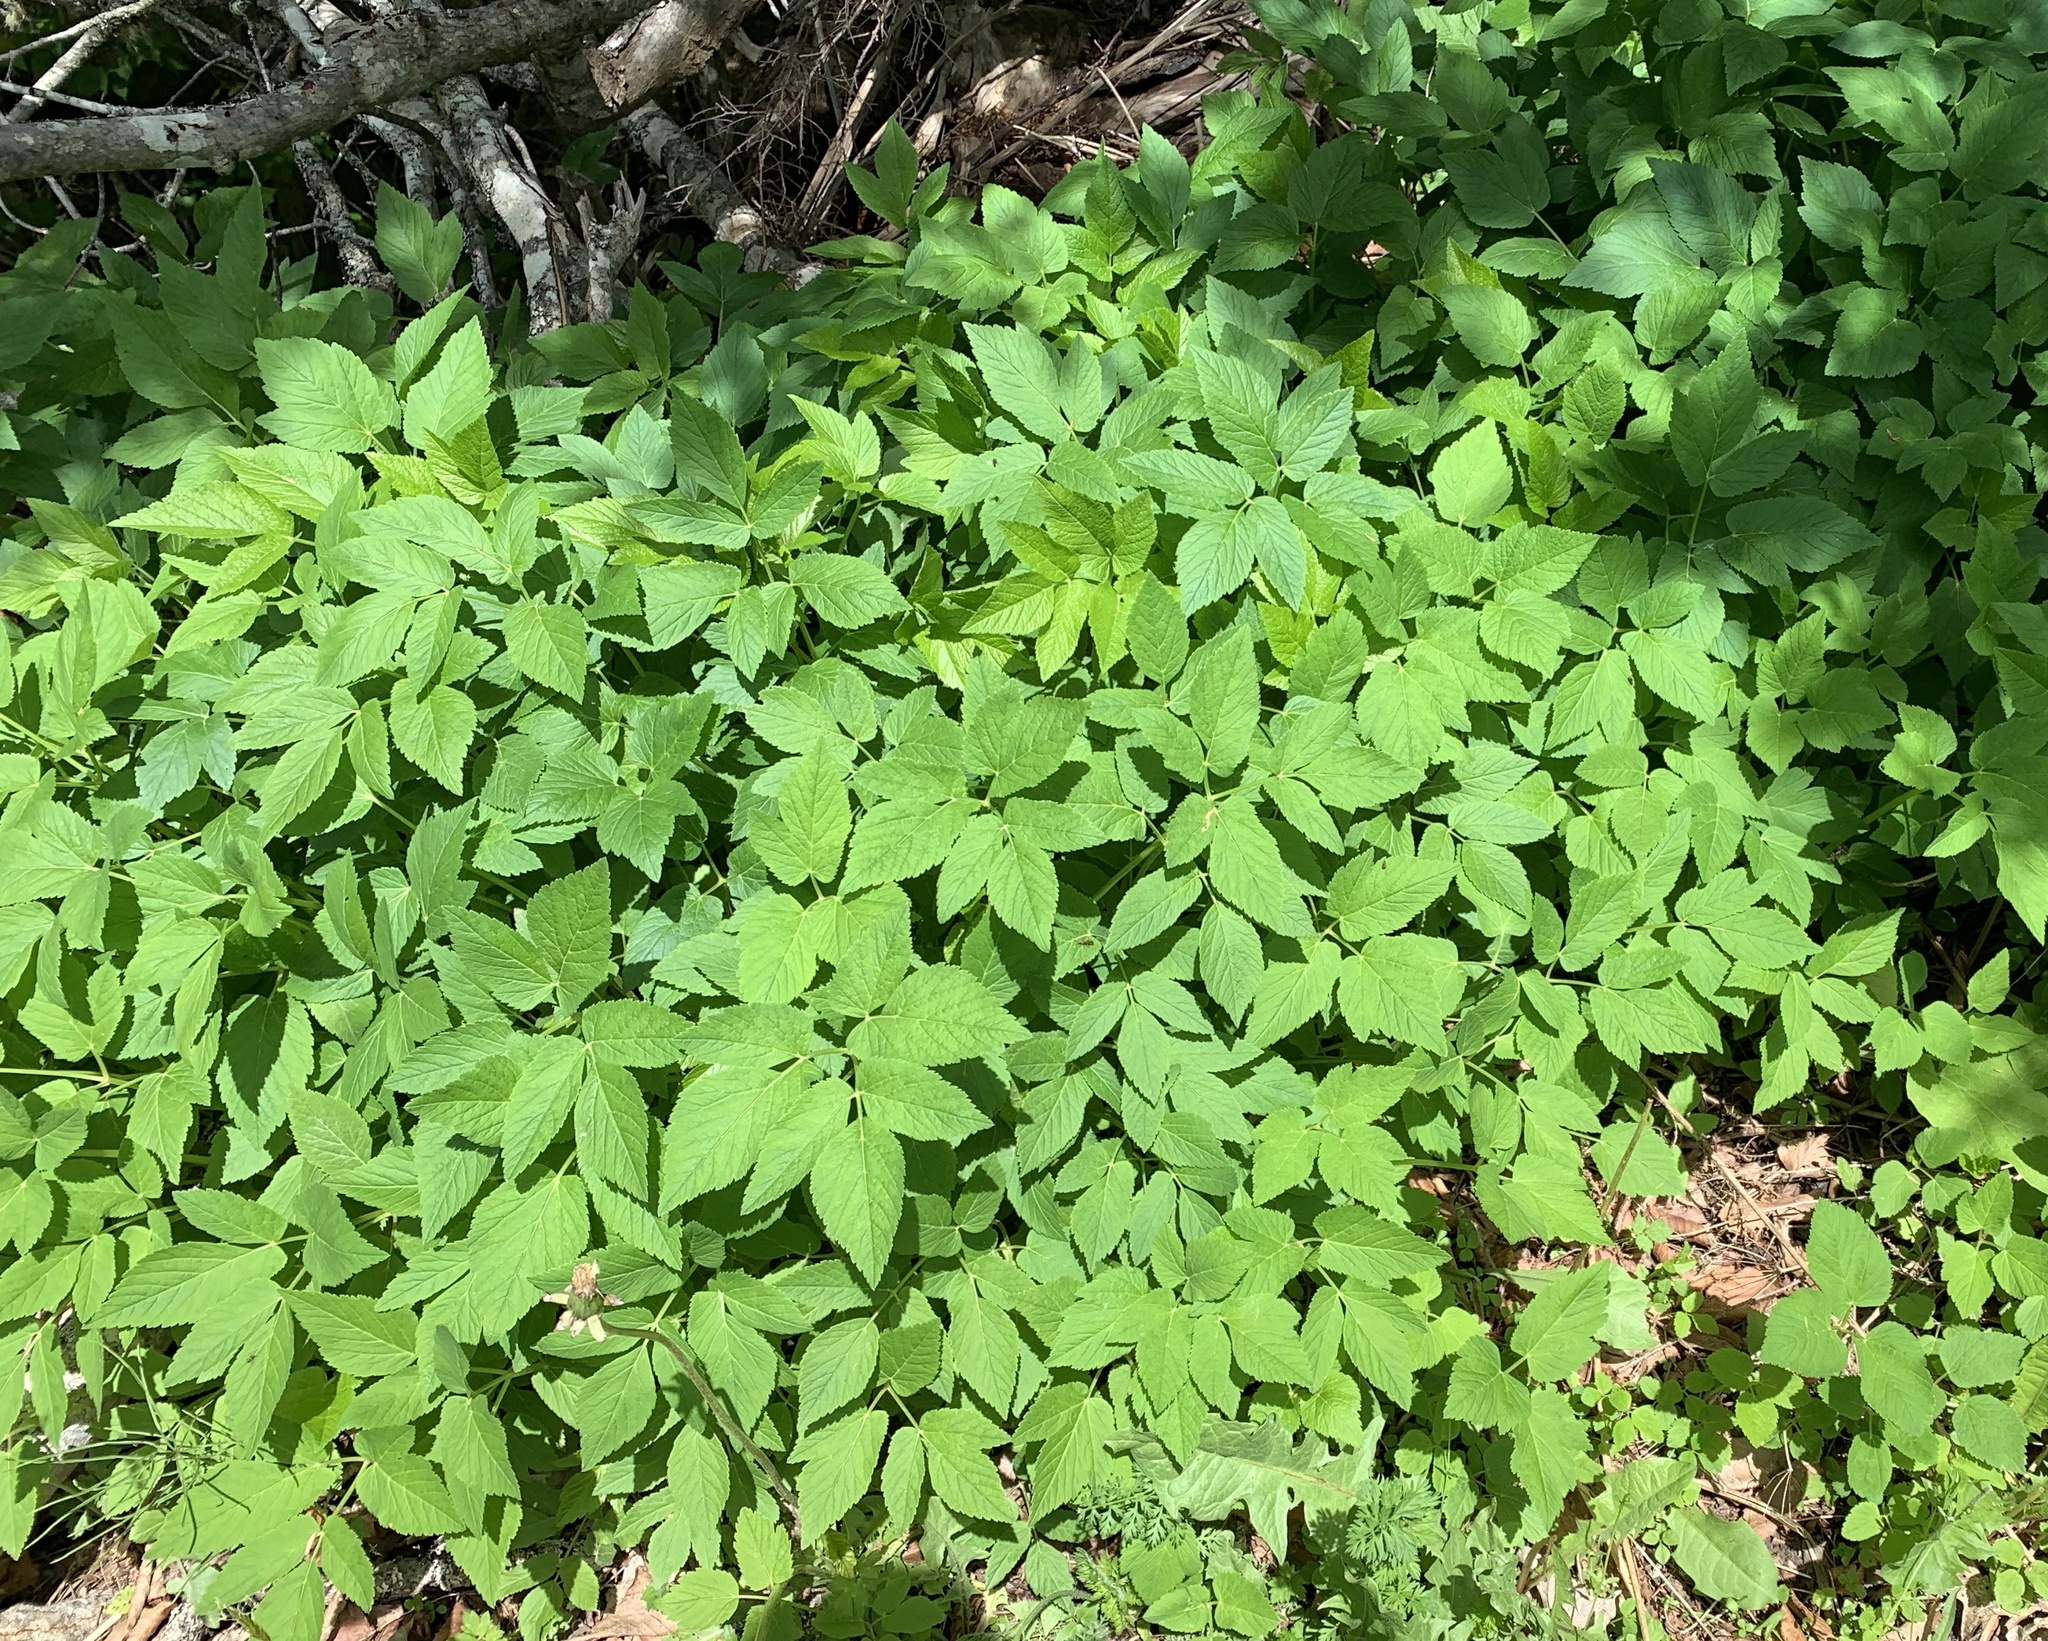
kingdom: Plantae
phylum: Tracheophyta
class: Magnoliopsida
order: Apiales
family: Apiaceae
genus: Aegopodium
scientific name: Aegopodium podagraria
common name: Ground-elder
